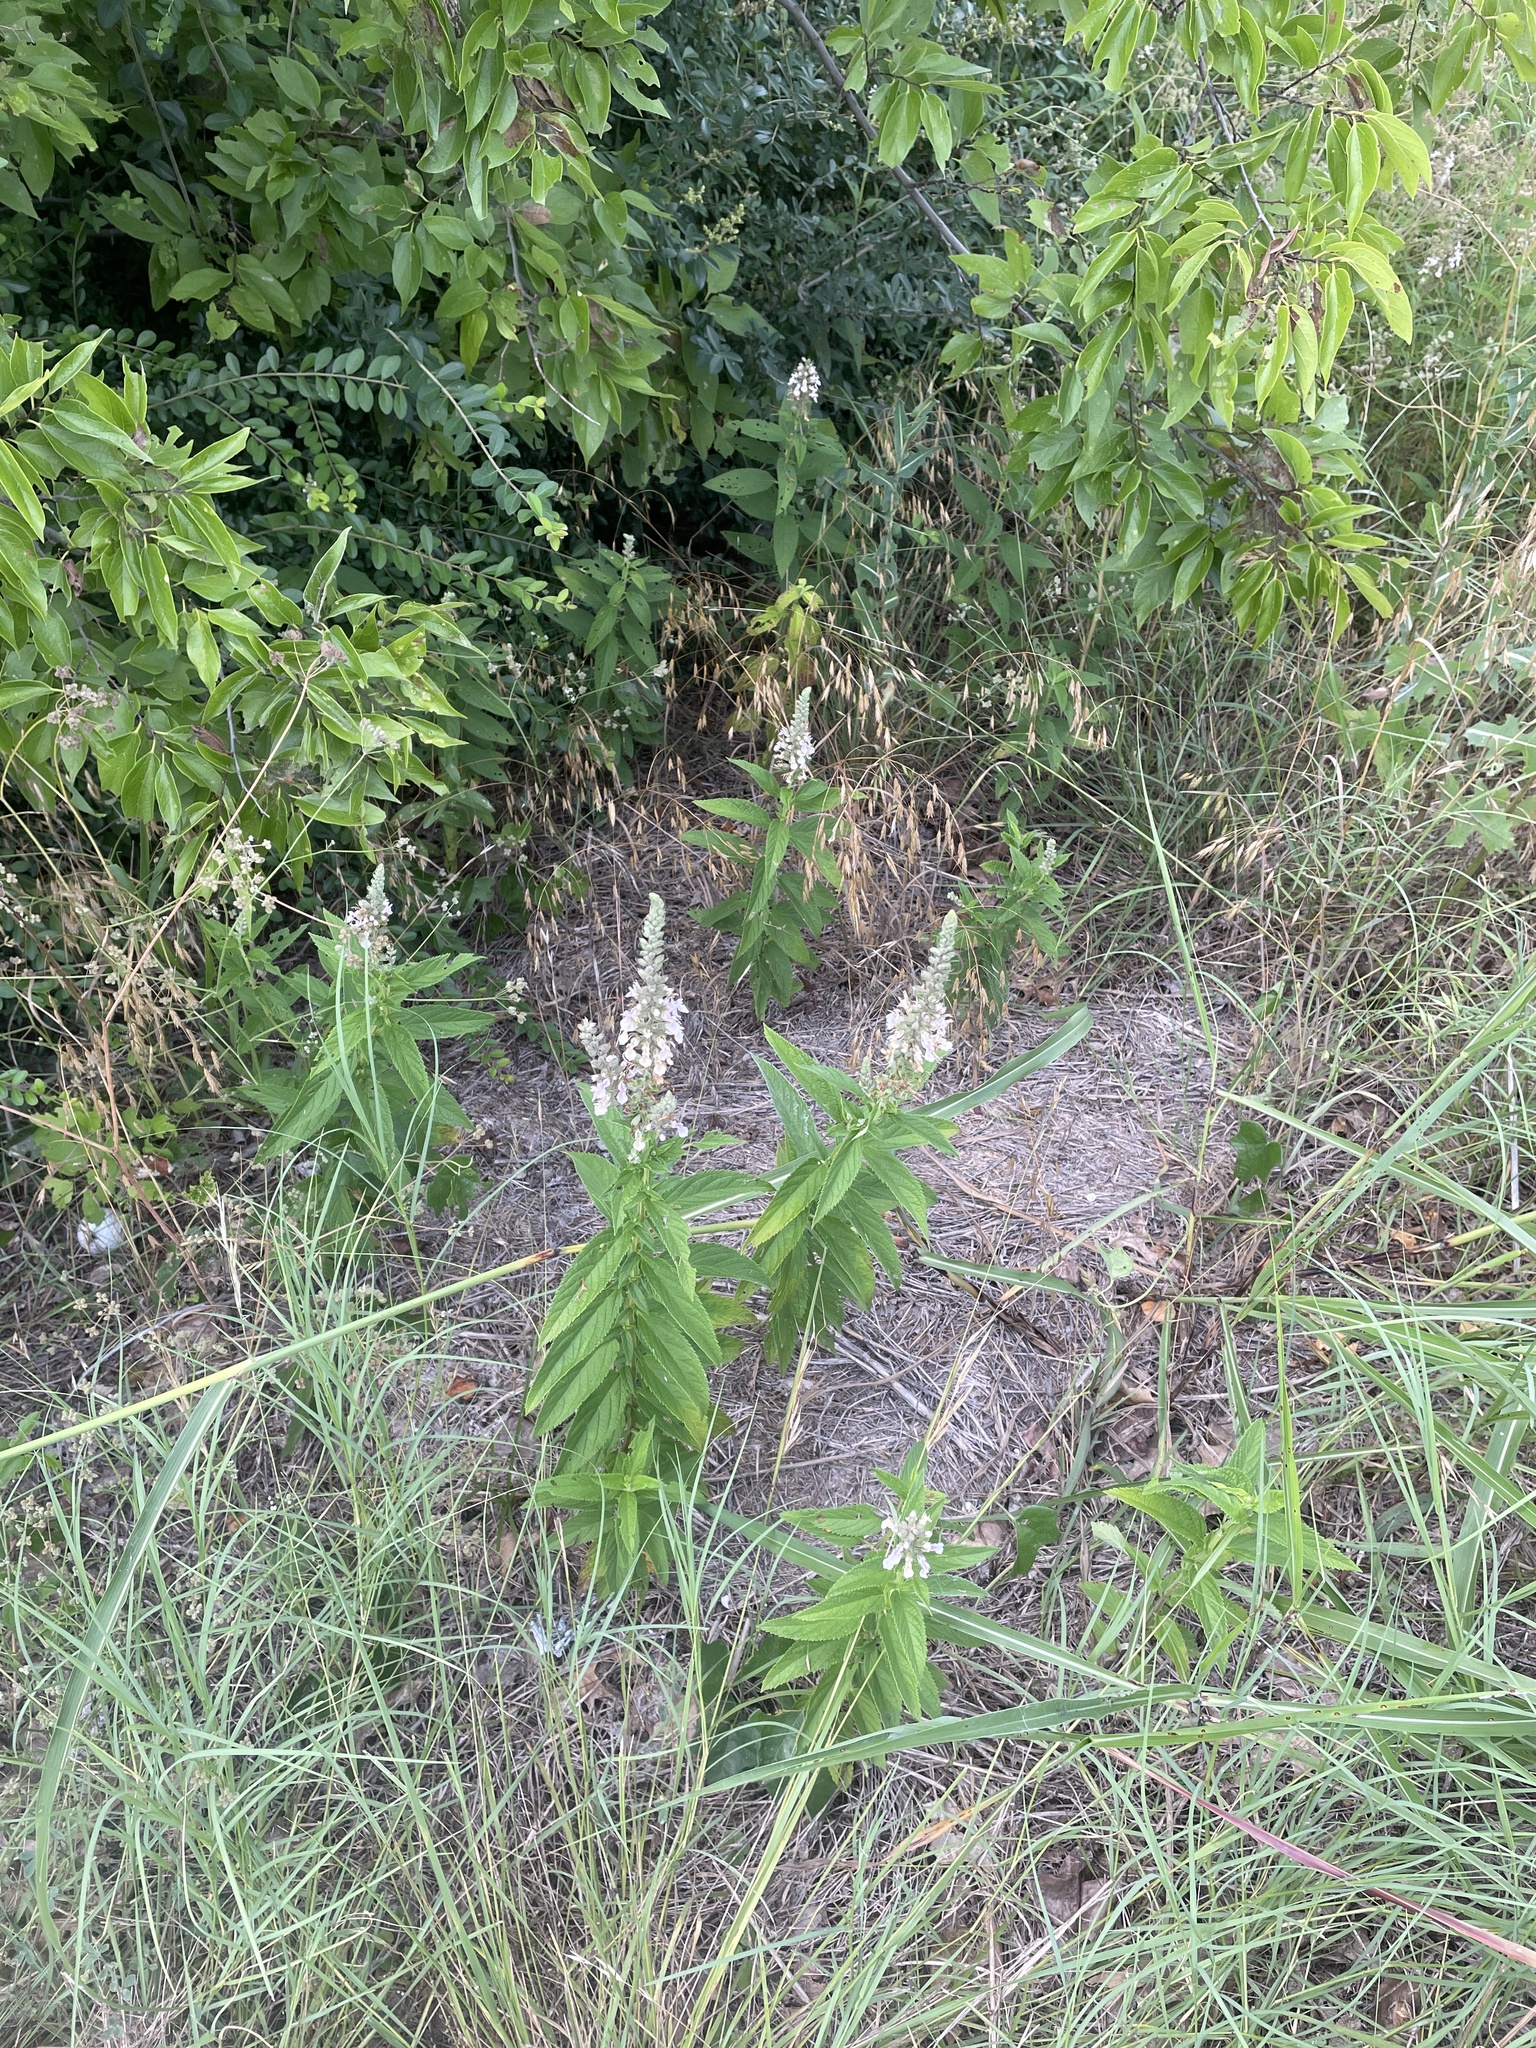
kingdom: Plantae
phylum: Tracheophyta
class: Magnoliopsida
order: Lamiales
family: Lamiaceae
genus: Teucrium
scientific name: Teucrium canadense
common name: American germander
